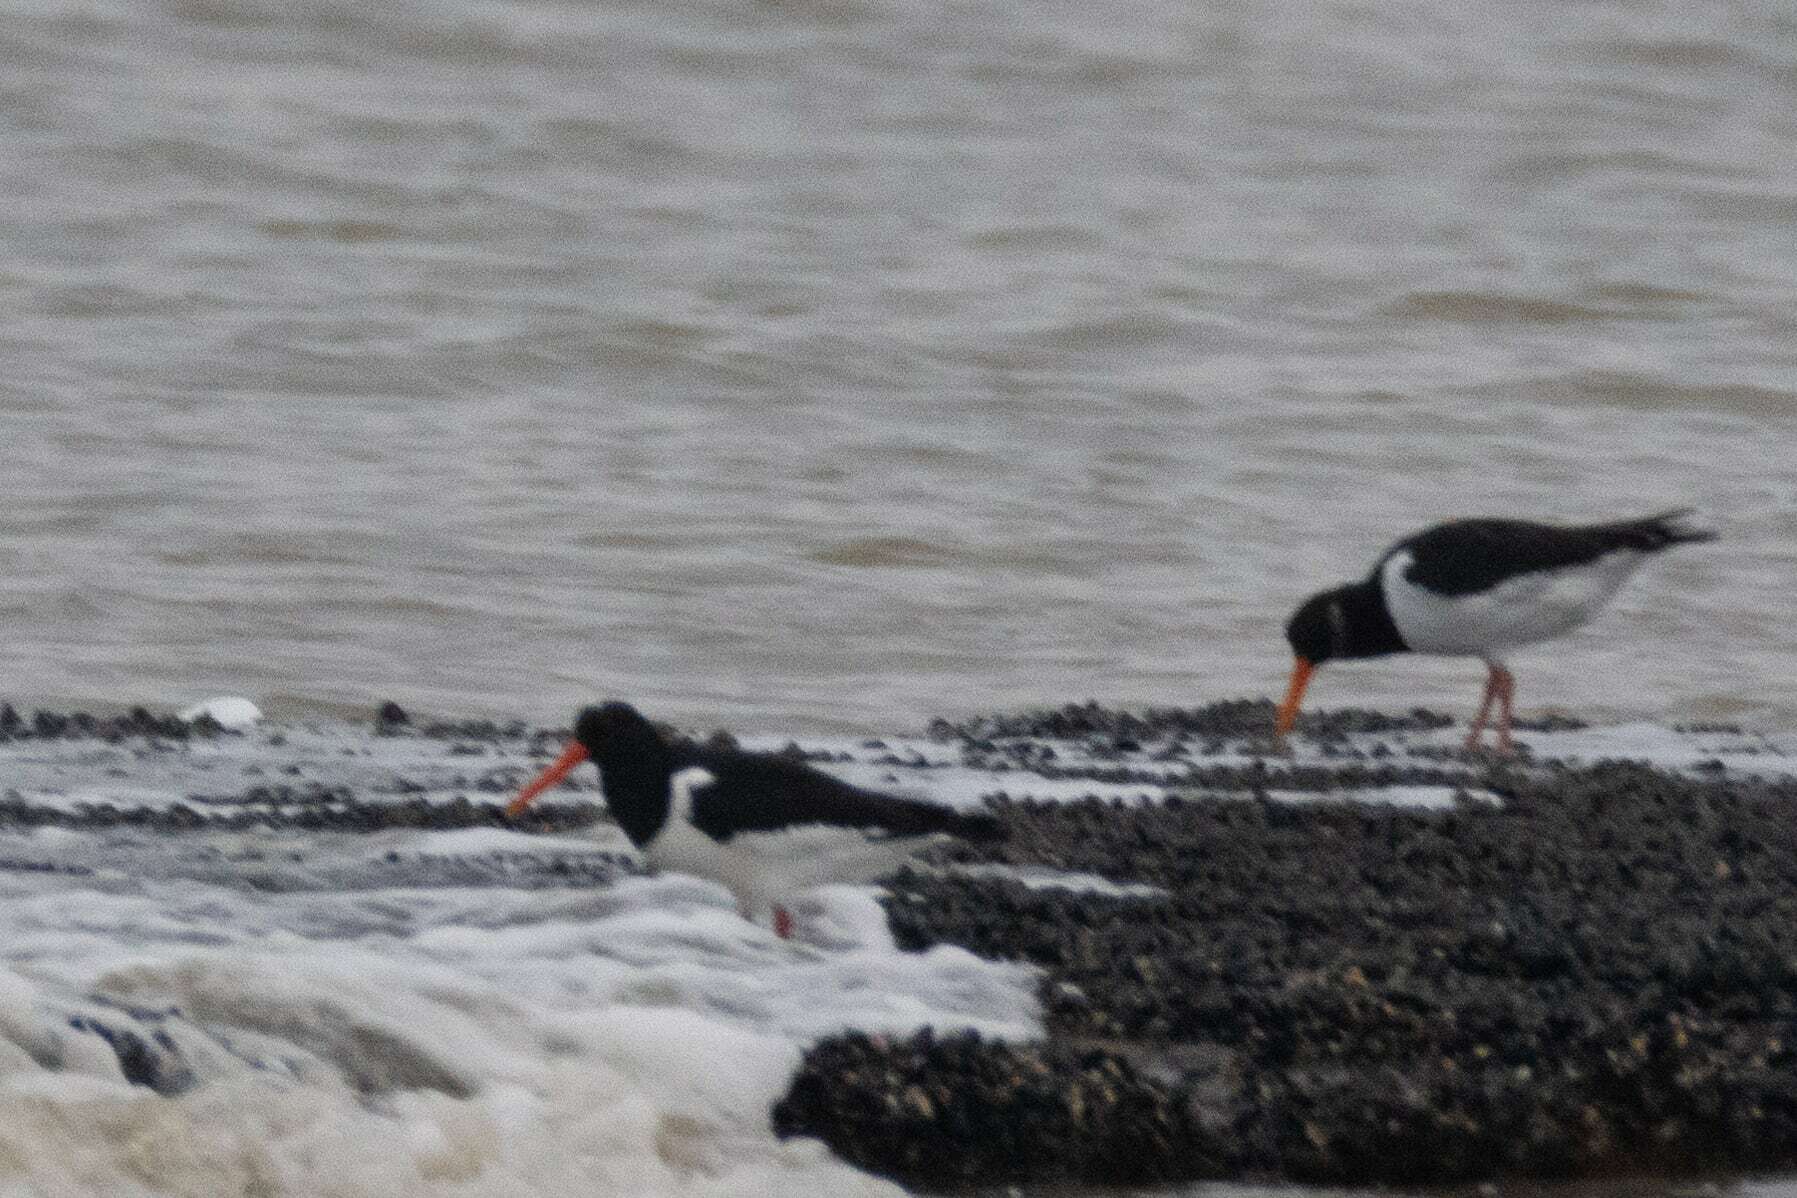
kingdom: Animalia
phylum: Chordata
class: Aves
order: Charadriiformes
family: Haematopodidae
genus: Haematopus
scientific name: Haematopus ostralegus
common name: Eurasian oystercatcher
